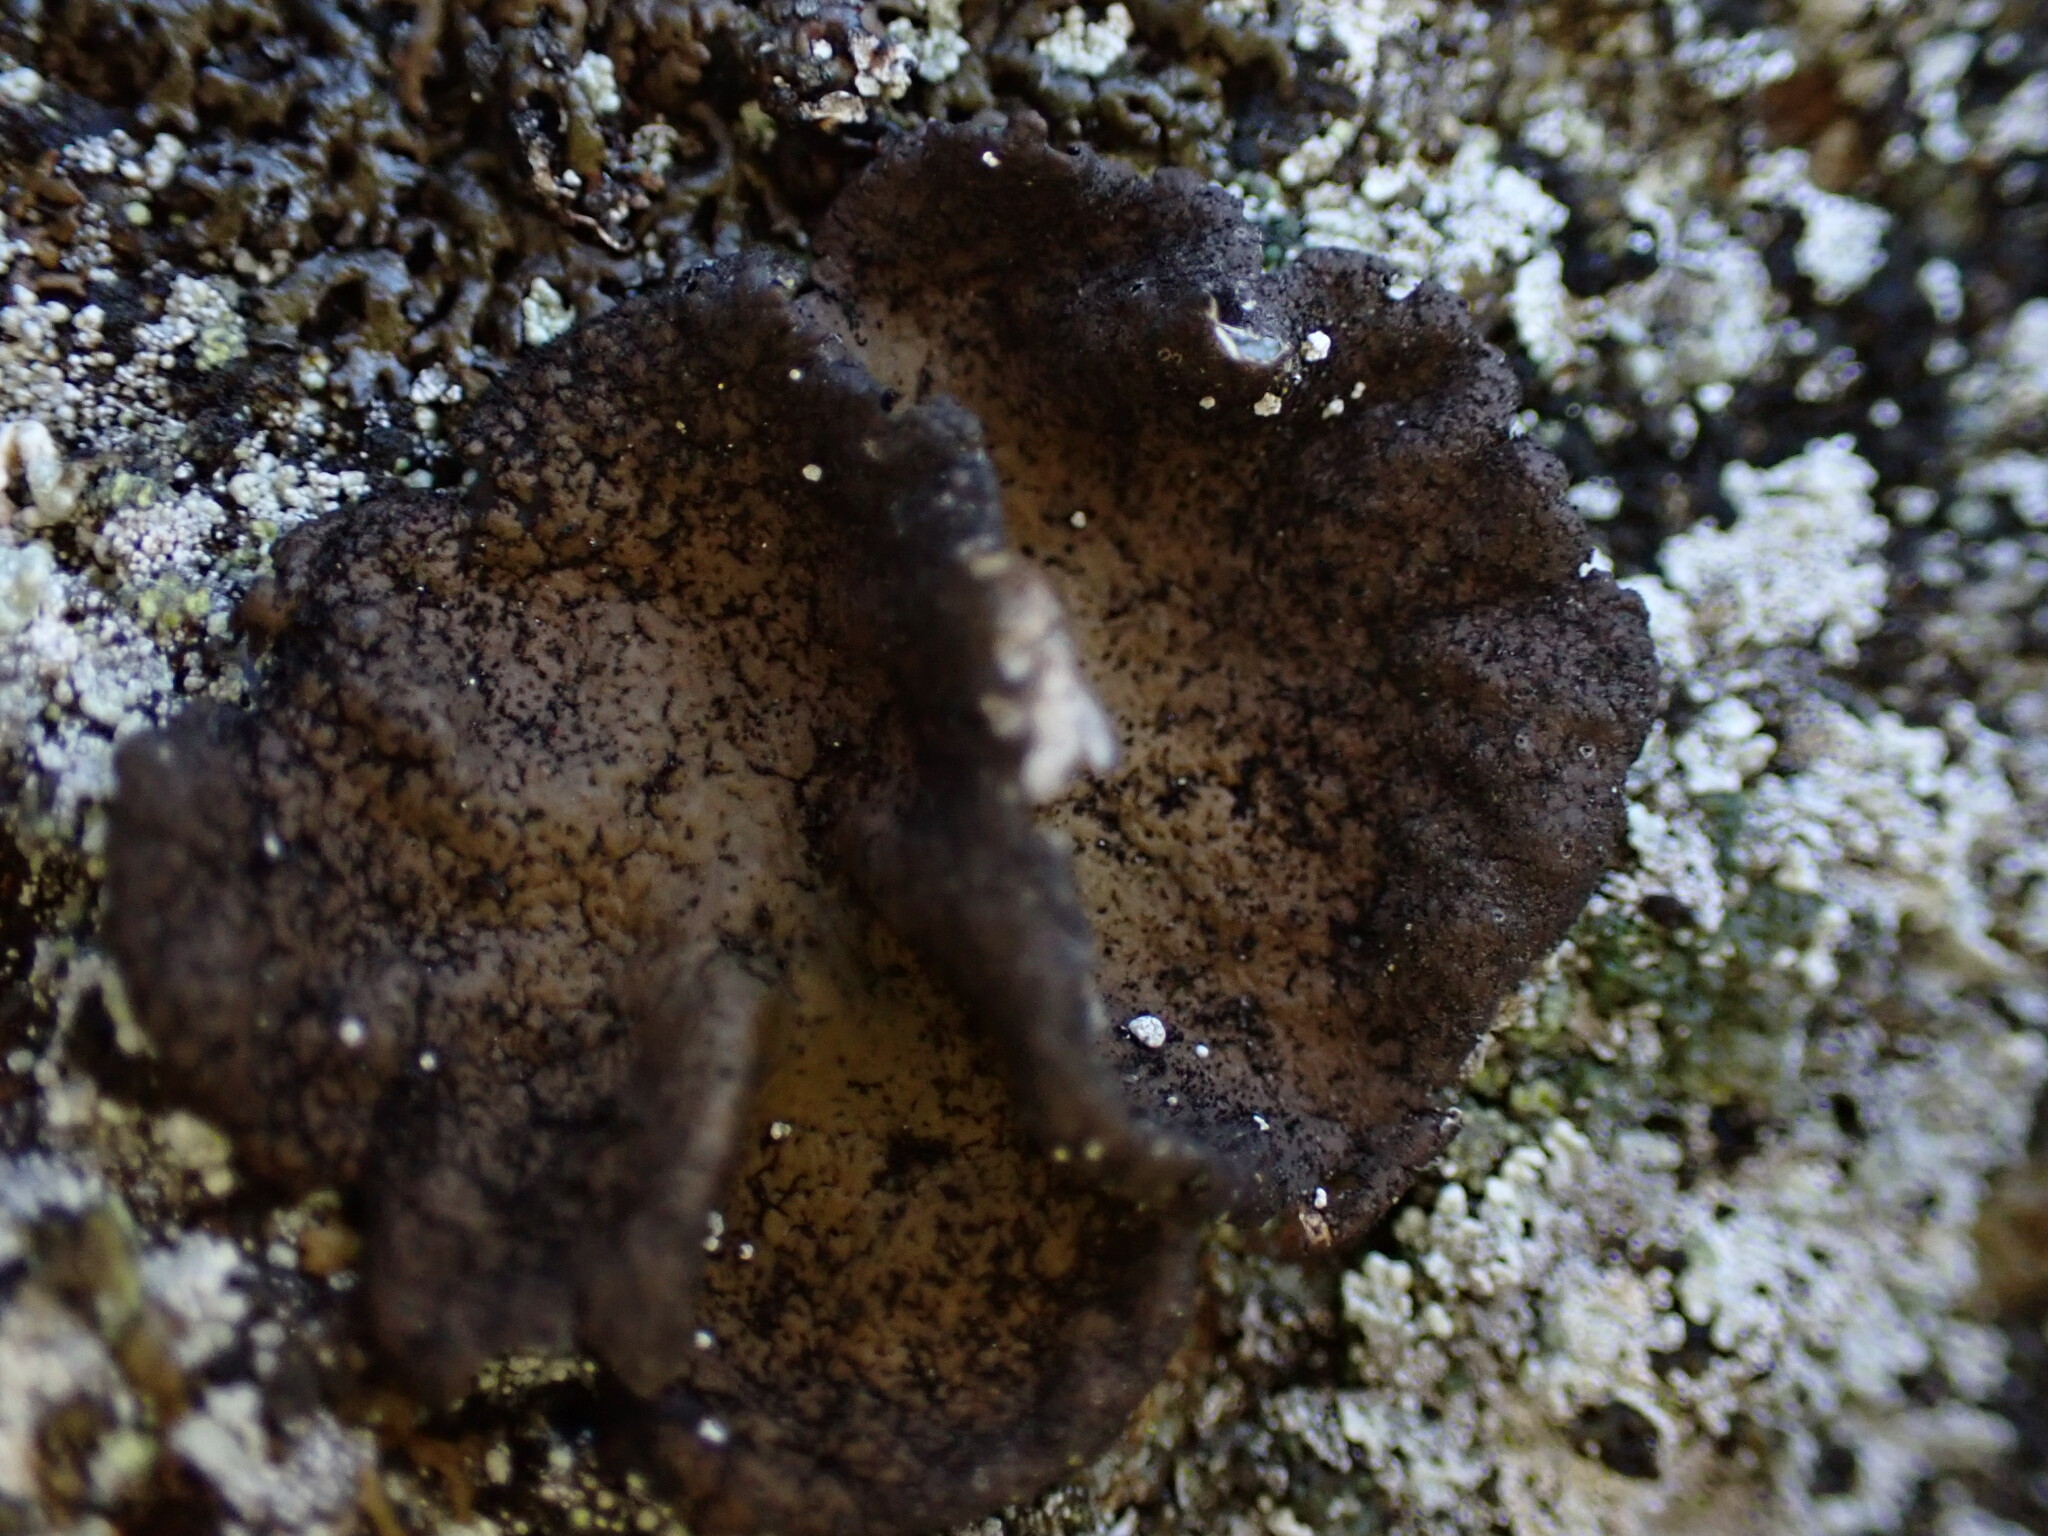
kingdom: Fungi
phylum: Ascomycota
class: Lecanoromycetes
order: Umbilicariales
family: Umbilicariaceae
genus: Umbilicaria
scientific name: Umbilicaria deusta
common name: Peppered rock tripe
